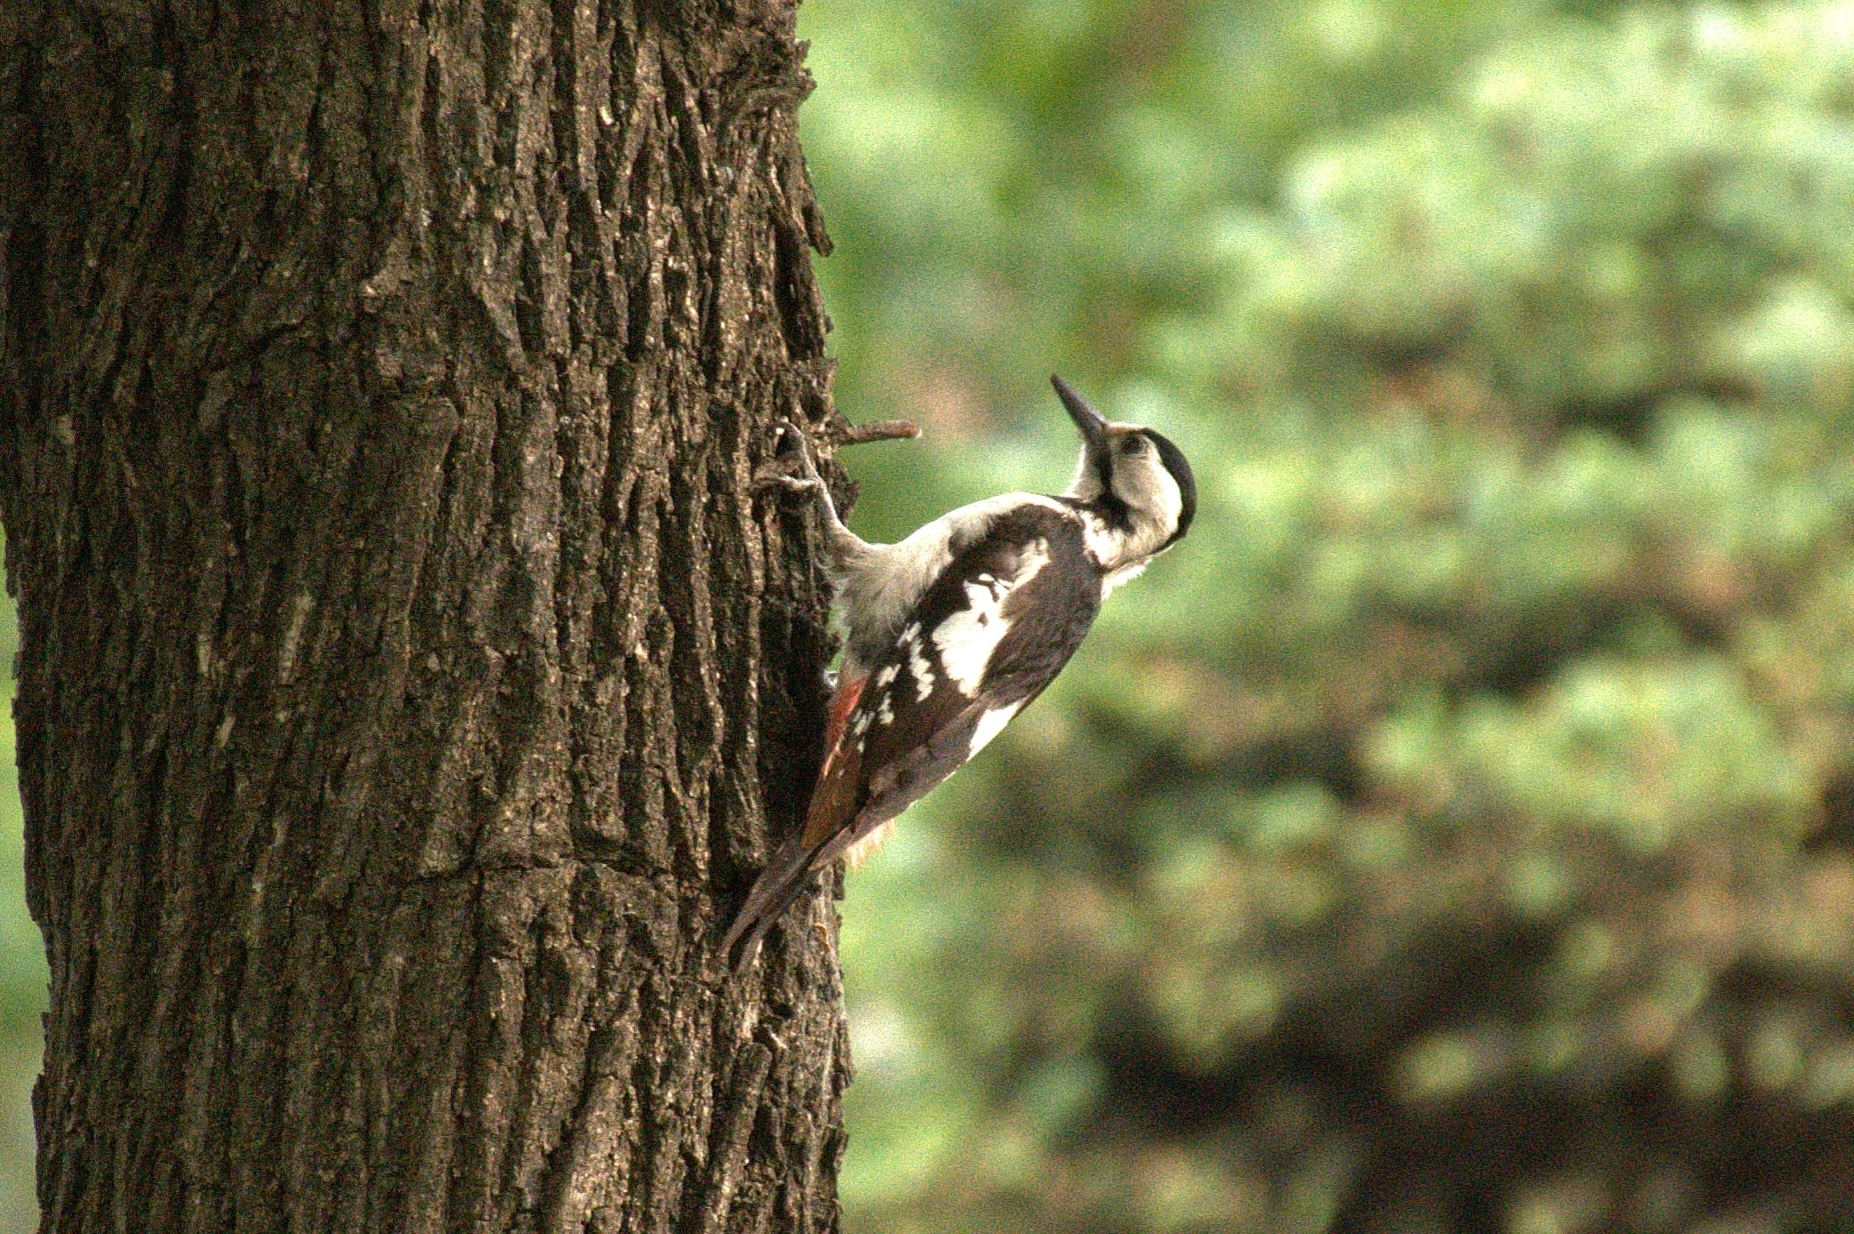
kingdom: Animalia
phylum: Chordata
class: Aves
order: Piciformes
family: Picidae
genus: Dendrocopos
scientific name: Dendrocopos syriacus
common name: Syrian woodpecker
